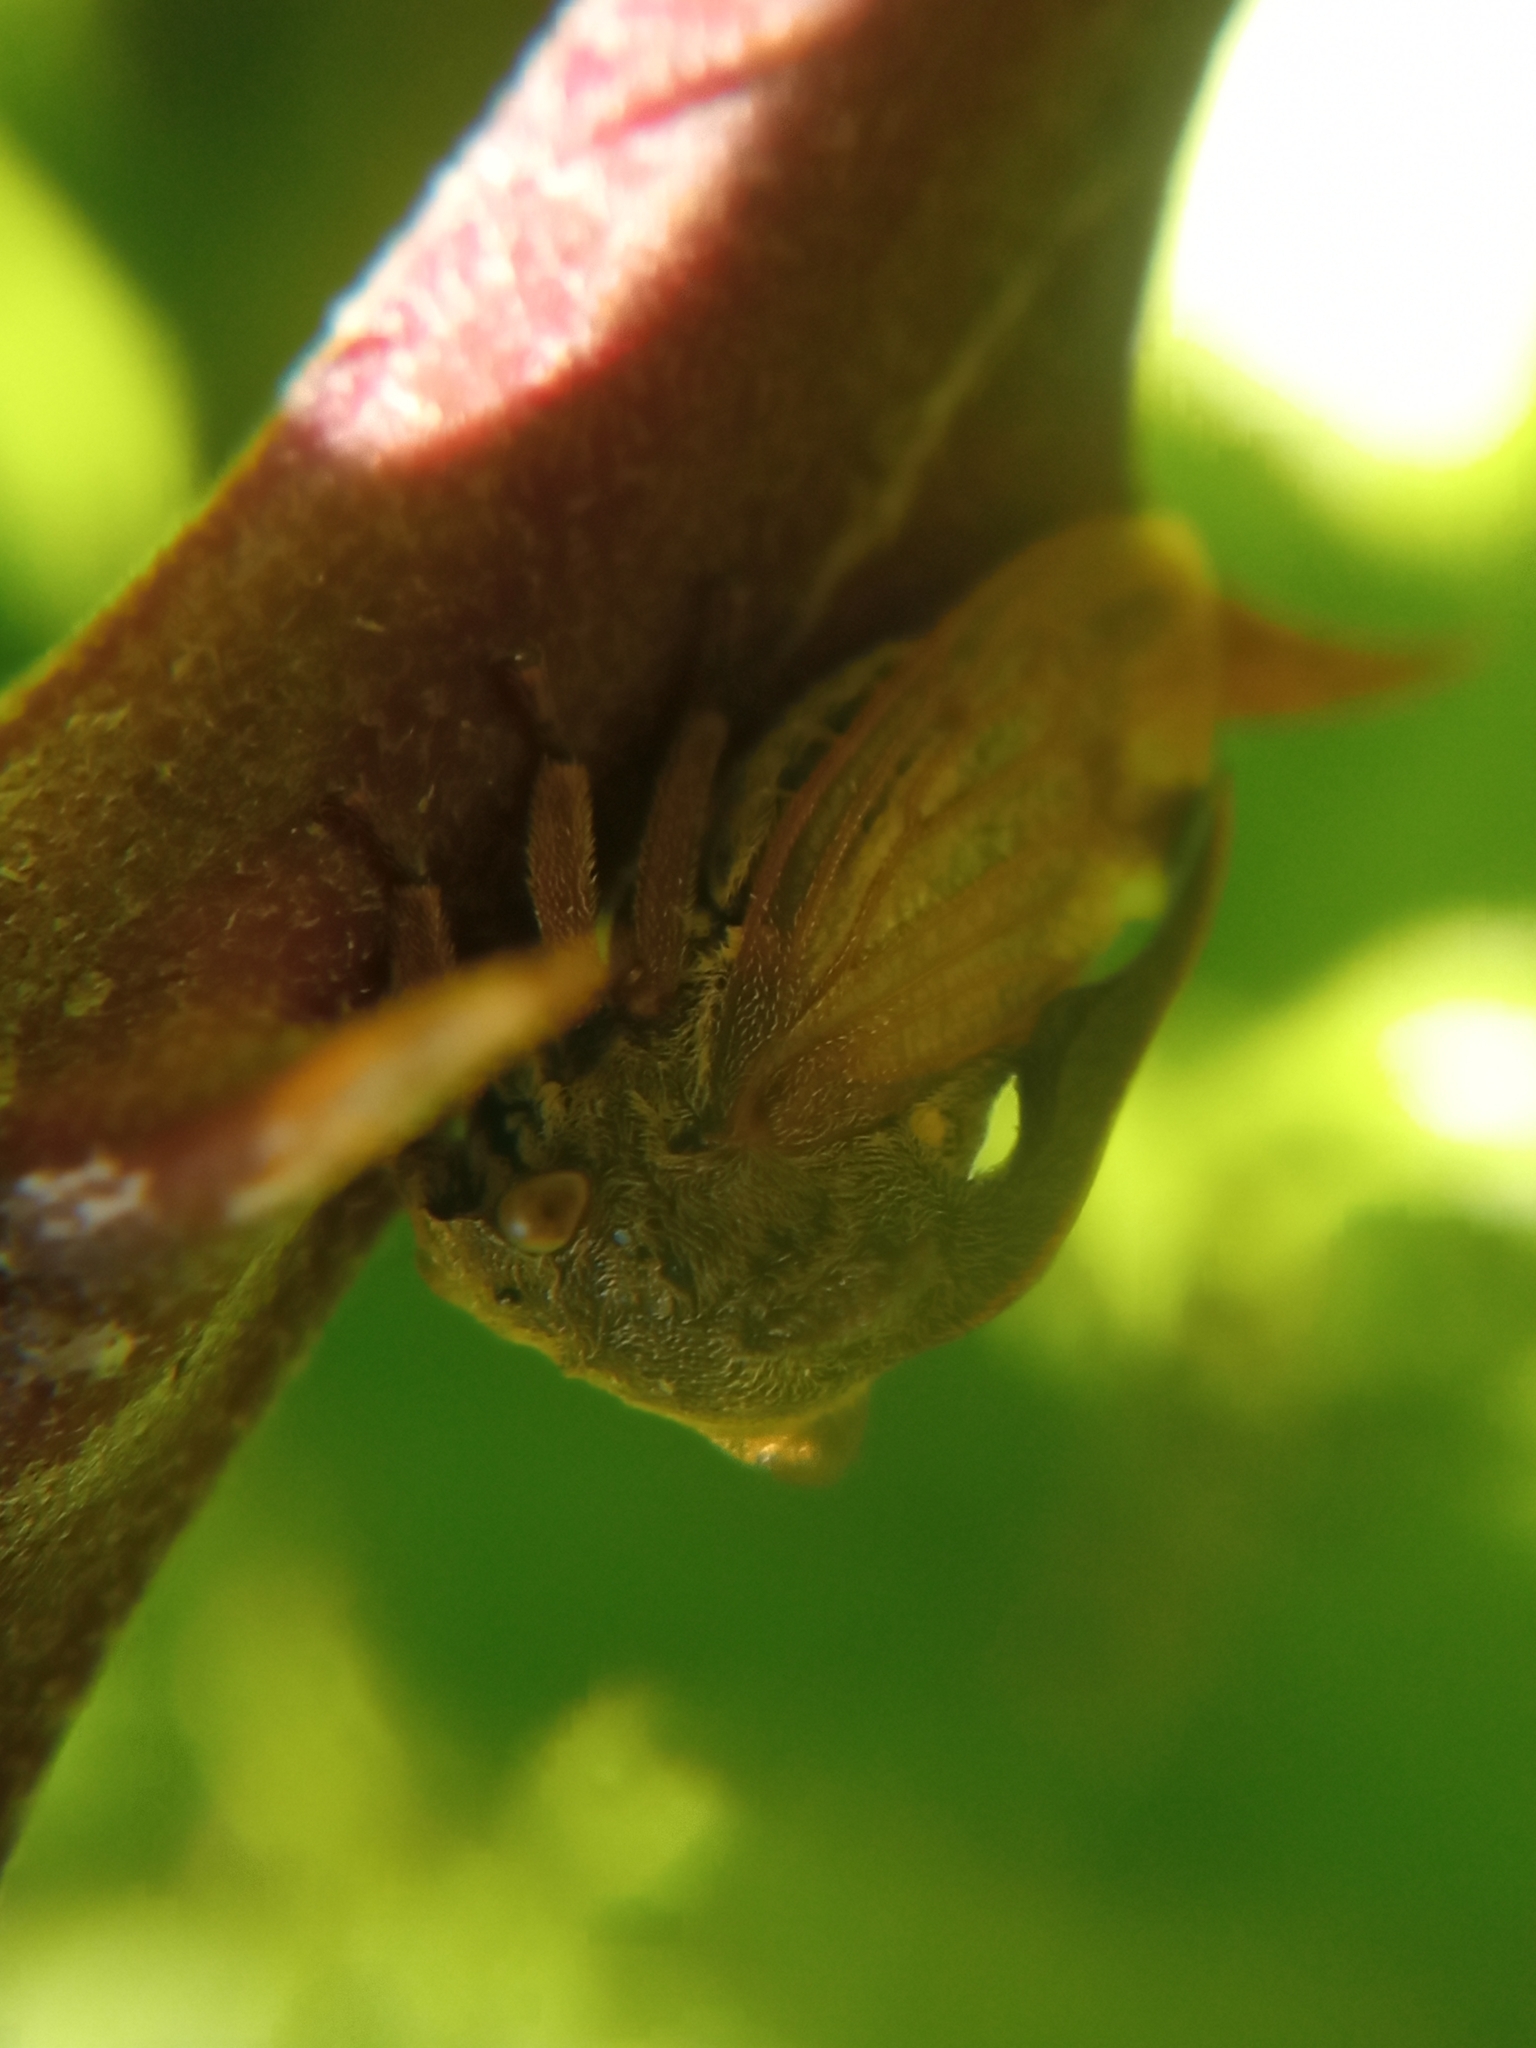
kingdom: Animalia
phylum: Arthropoda
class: Insecta
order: Hemiptera
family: Membracidae
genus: Centrotus
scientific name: Centrotus cornuta
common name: Treehopper
